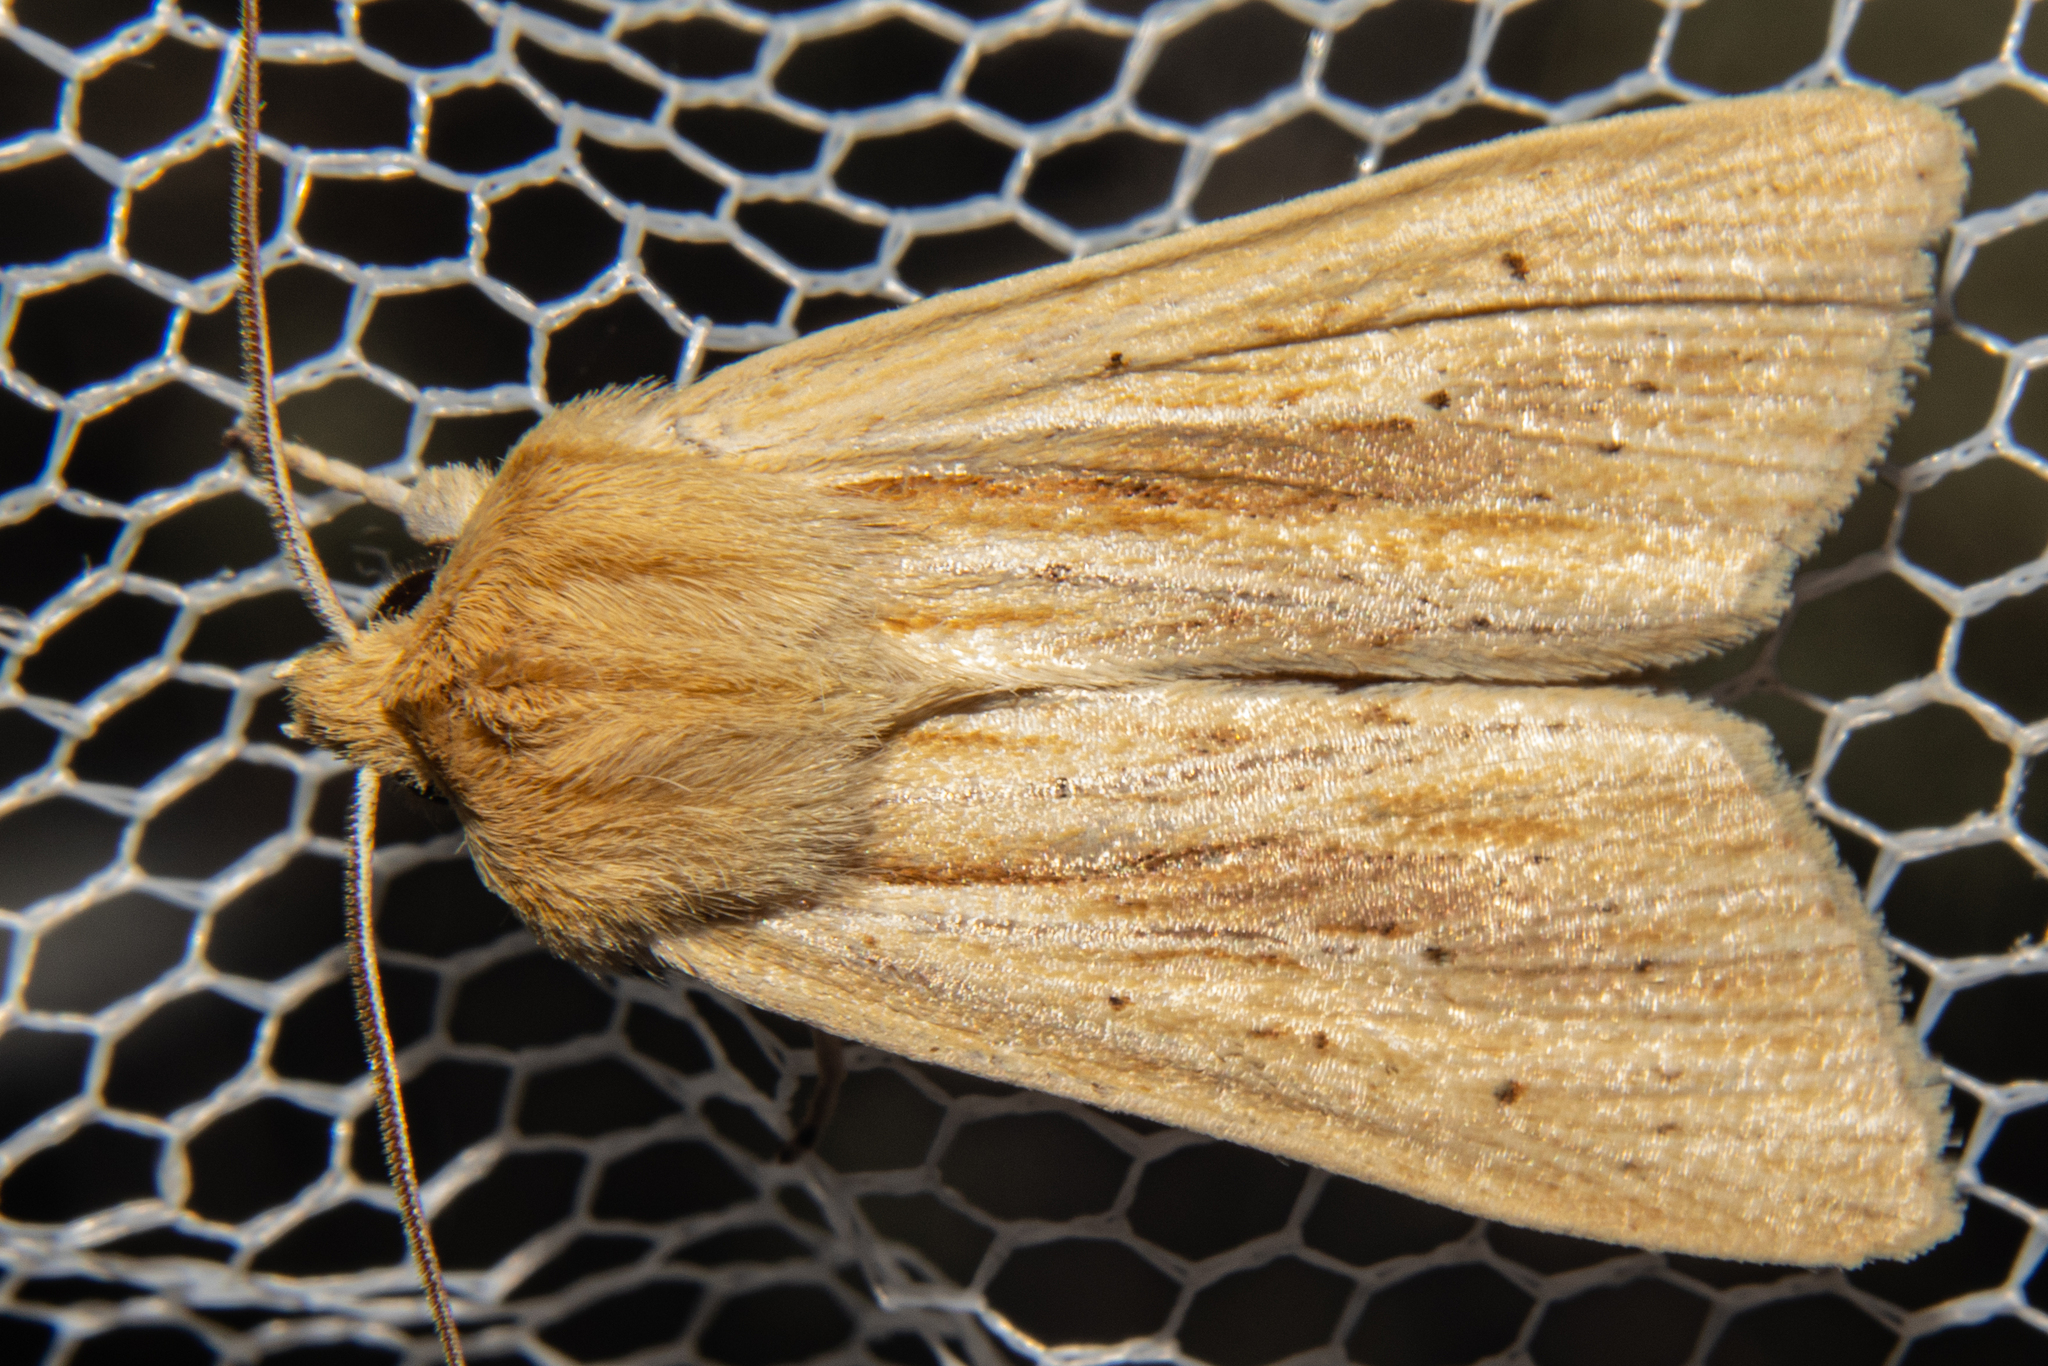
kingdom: Animalia
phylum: Arthropoda
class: Insecta
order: Lepidoptera
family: Noctuidae
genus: Ichneutica
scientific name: Ichneutica semivittata
